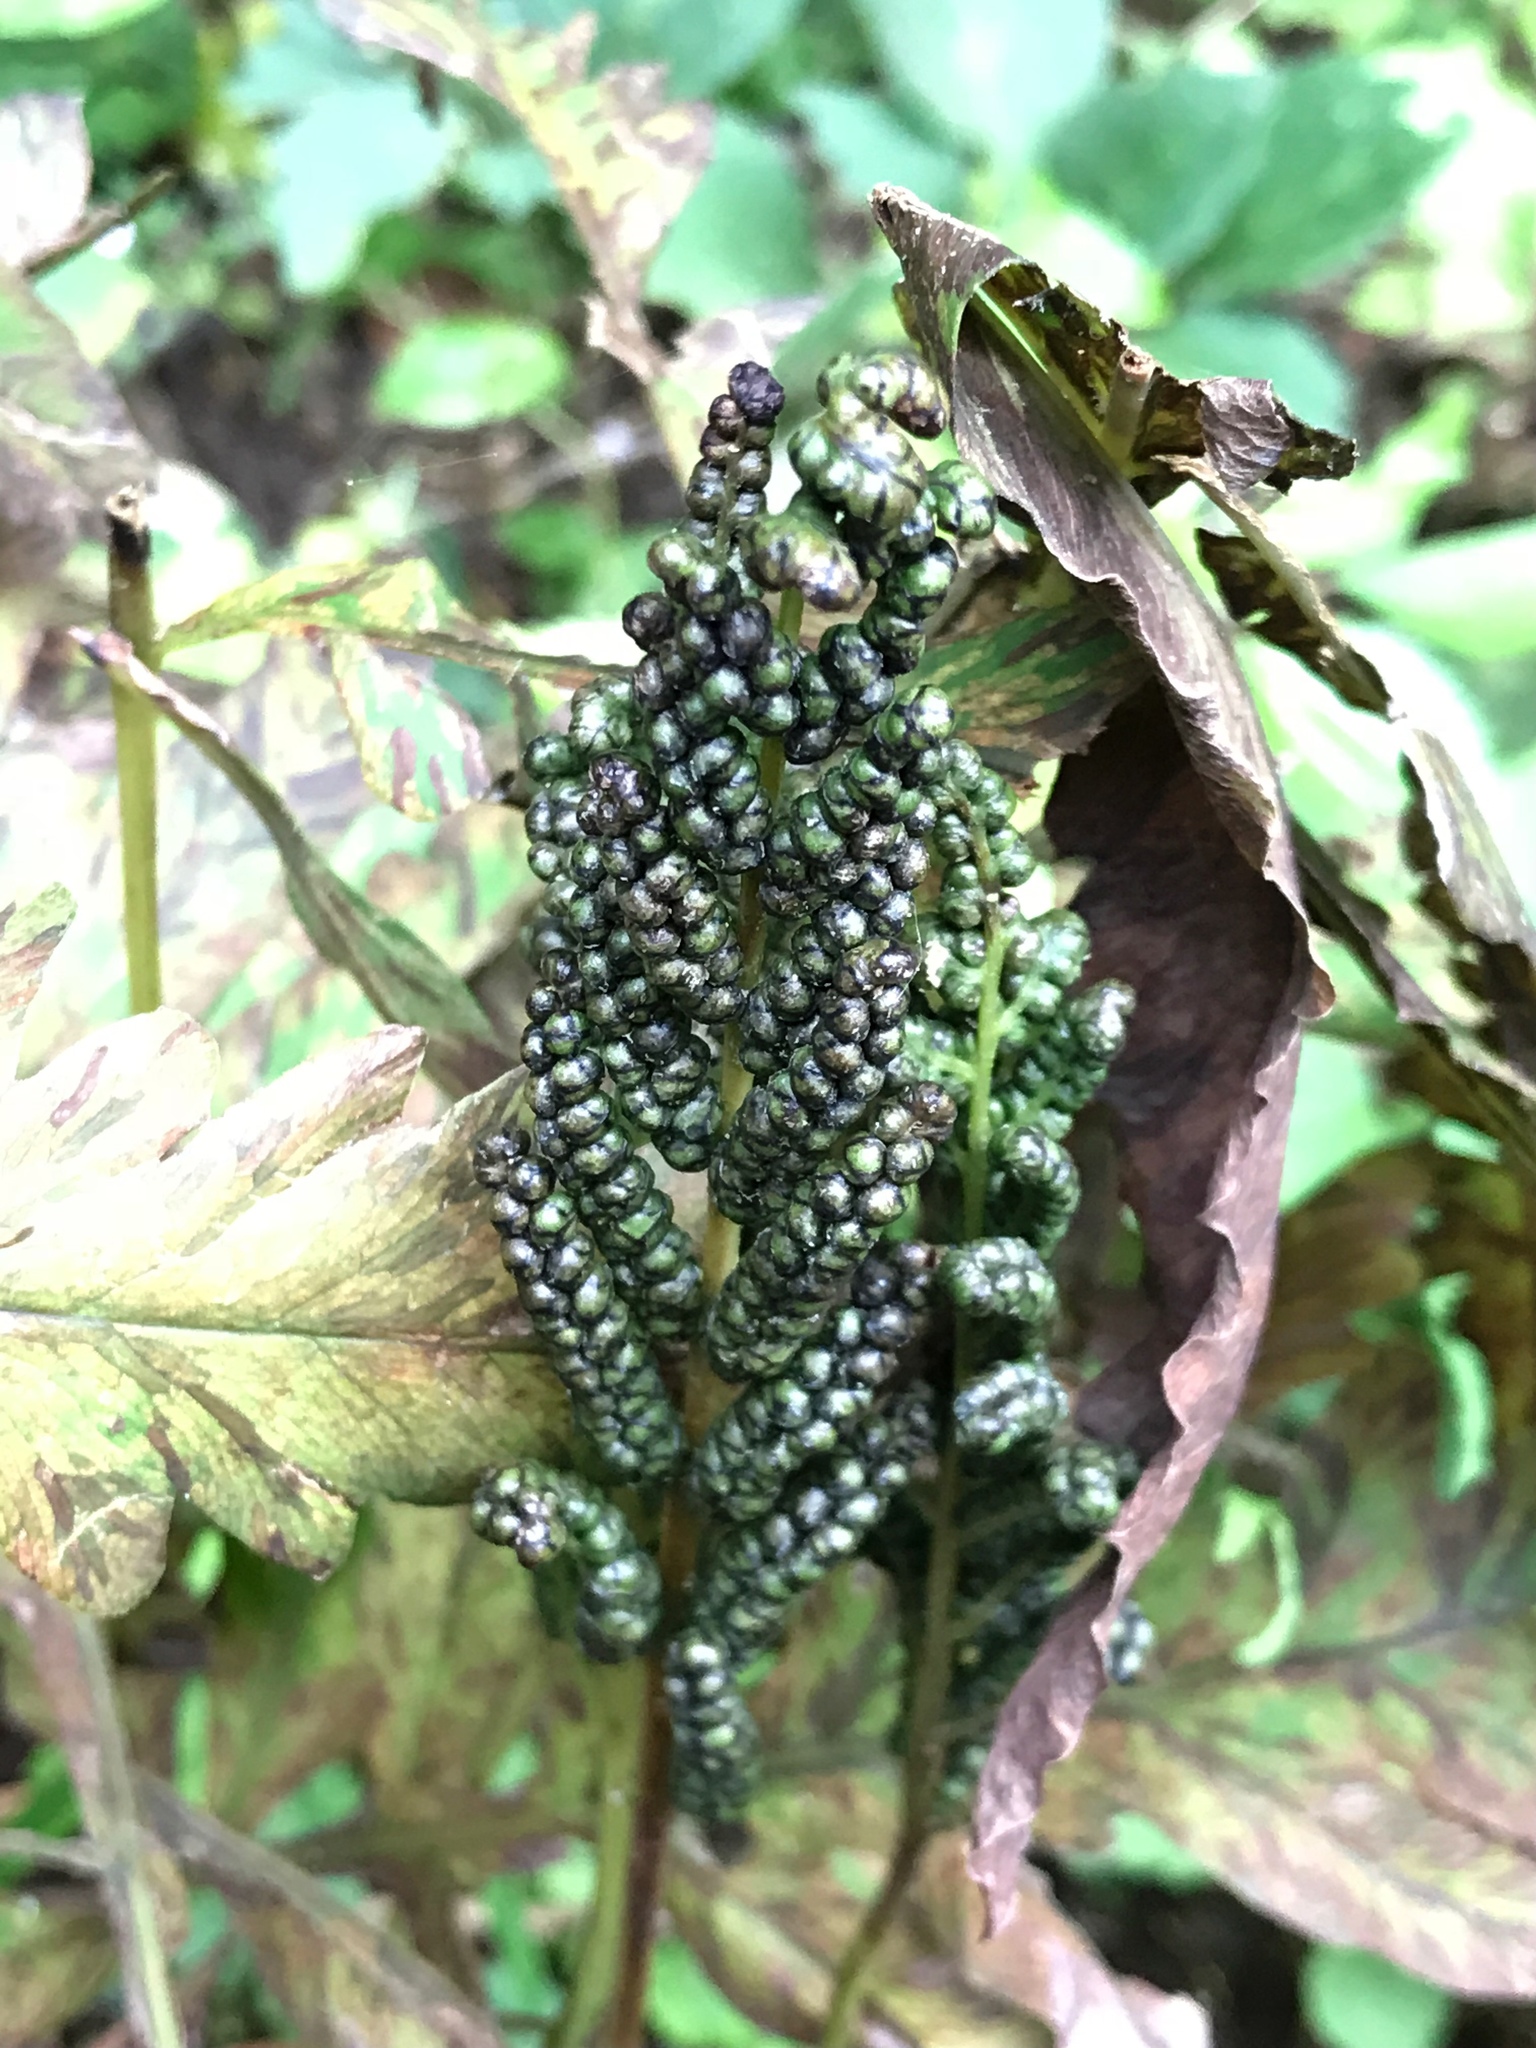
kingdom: Plantae
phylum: Tracheophyta
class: Polypodiopsida
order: Polypodiales
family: Onocleaceae
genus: Onoclea
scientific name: Onoclea sensibilis
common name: Sensitive fern
